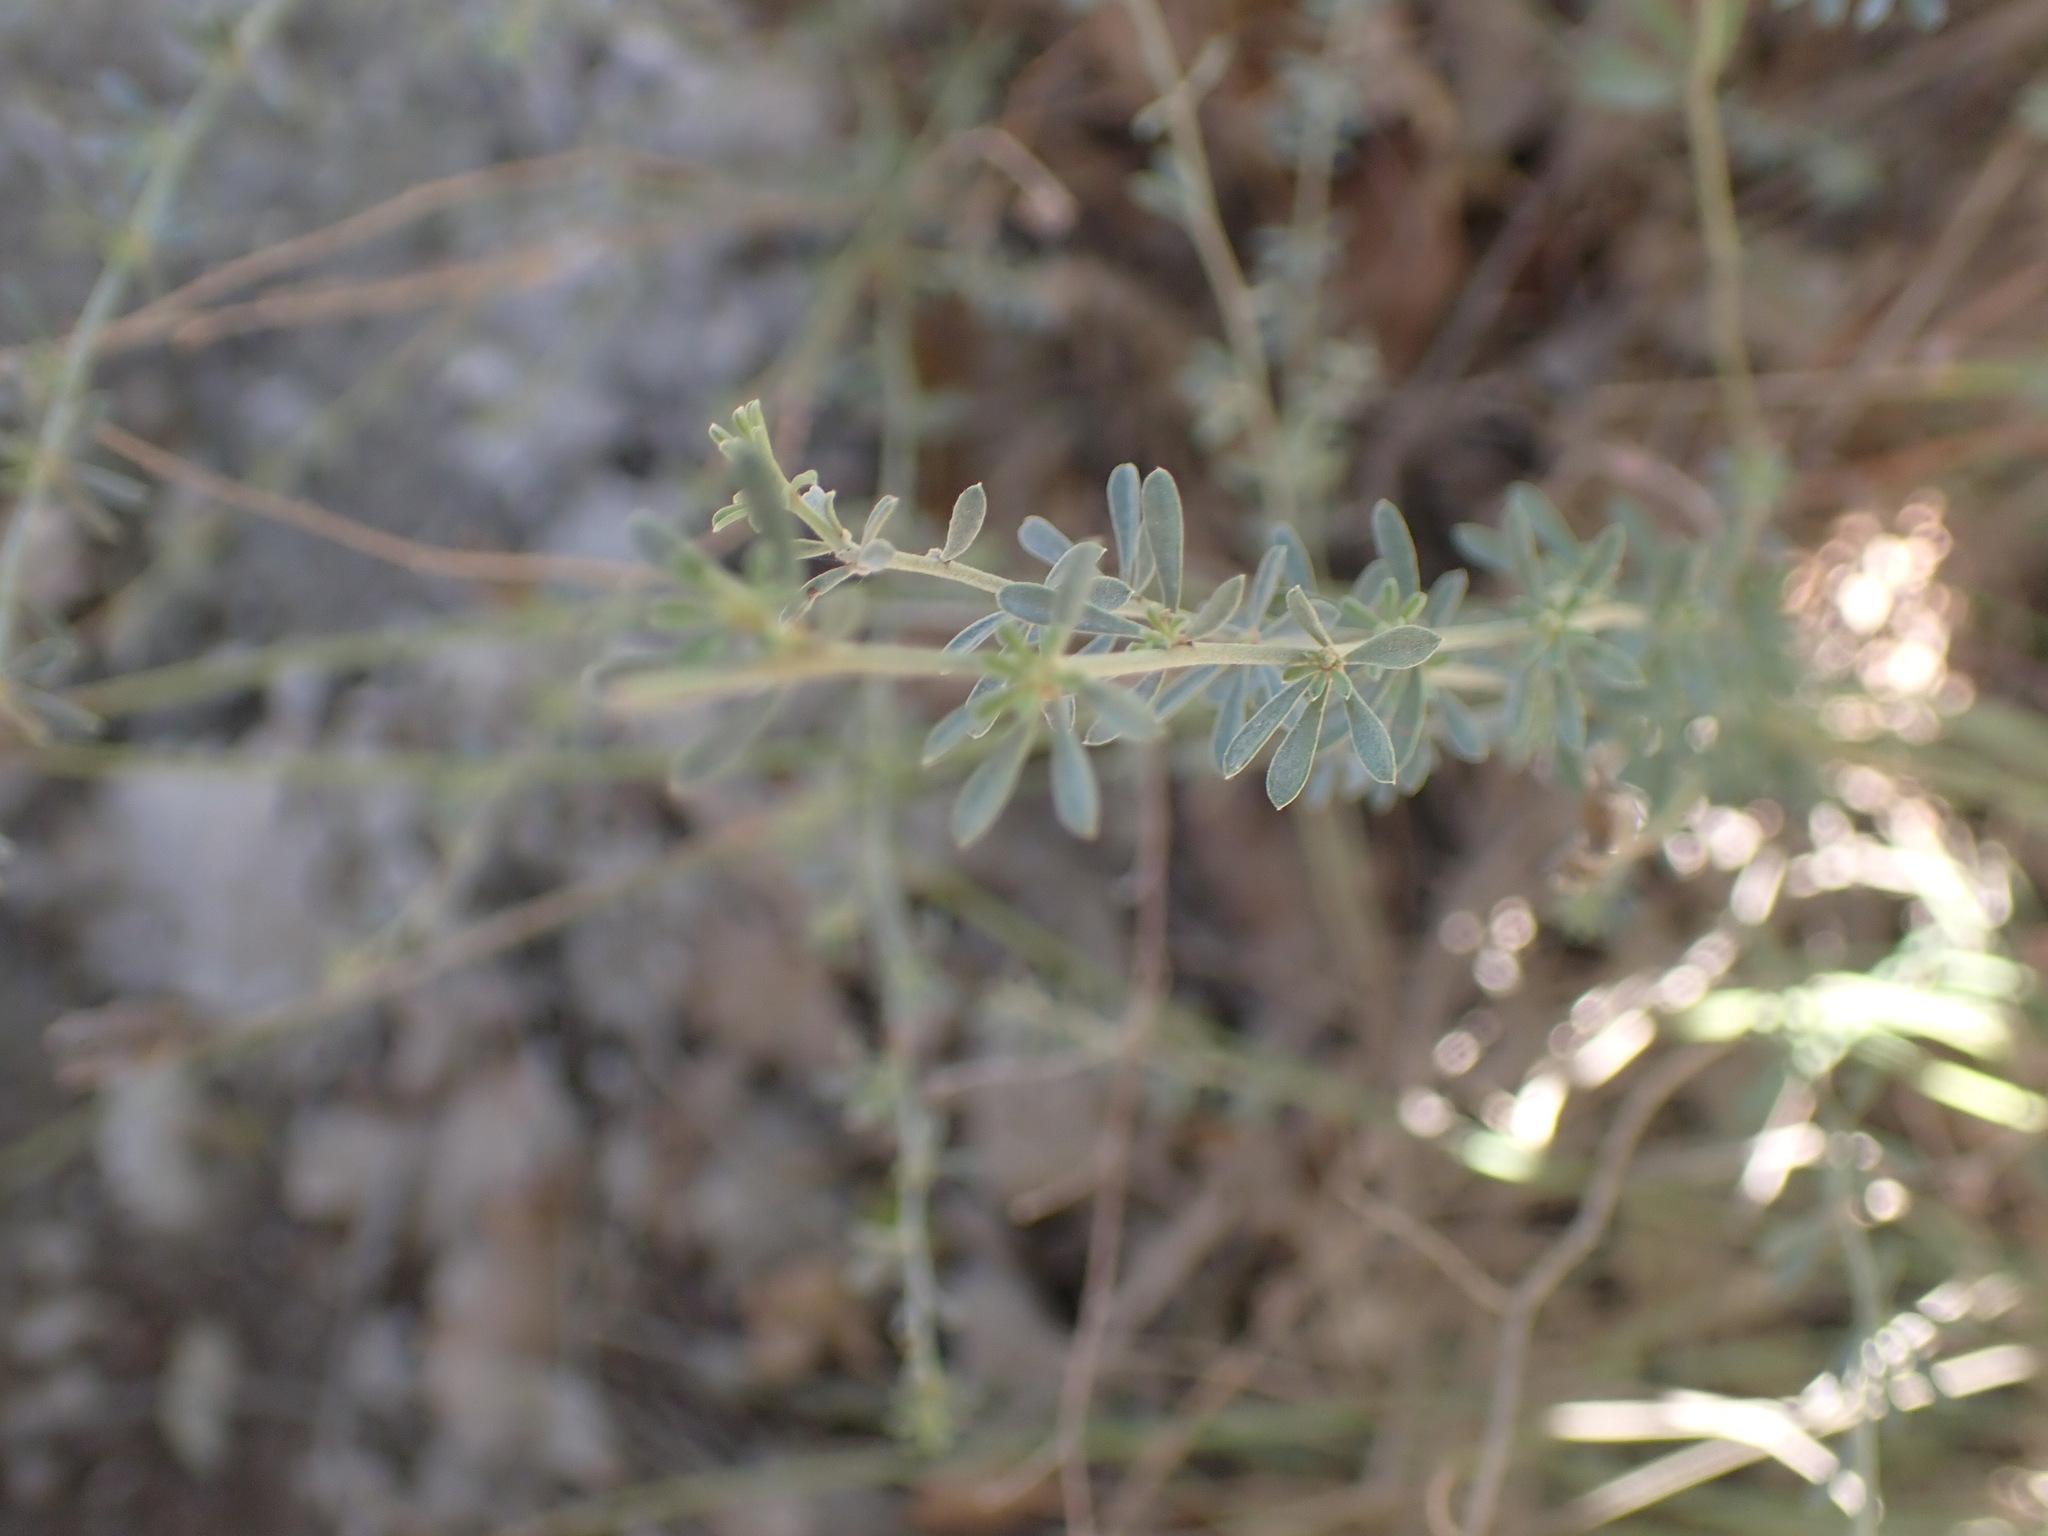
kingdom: Plantae
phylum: Tracheophyta
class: Magnoliopsida
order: Fabales
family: Fabaceae
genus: Lotus
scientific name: Lotus dorycnium
